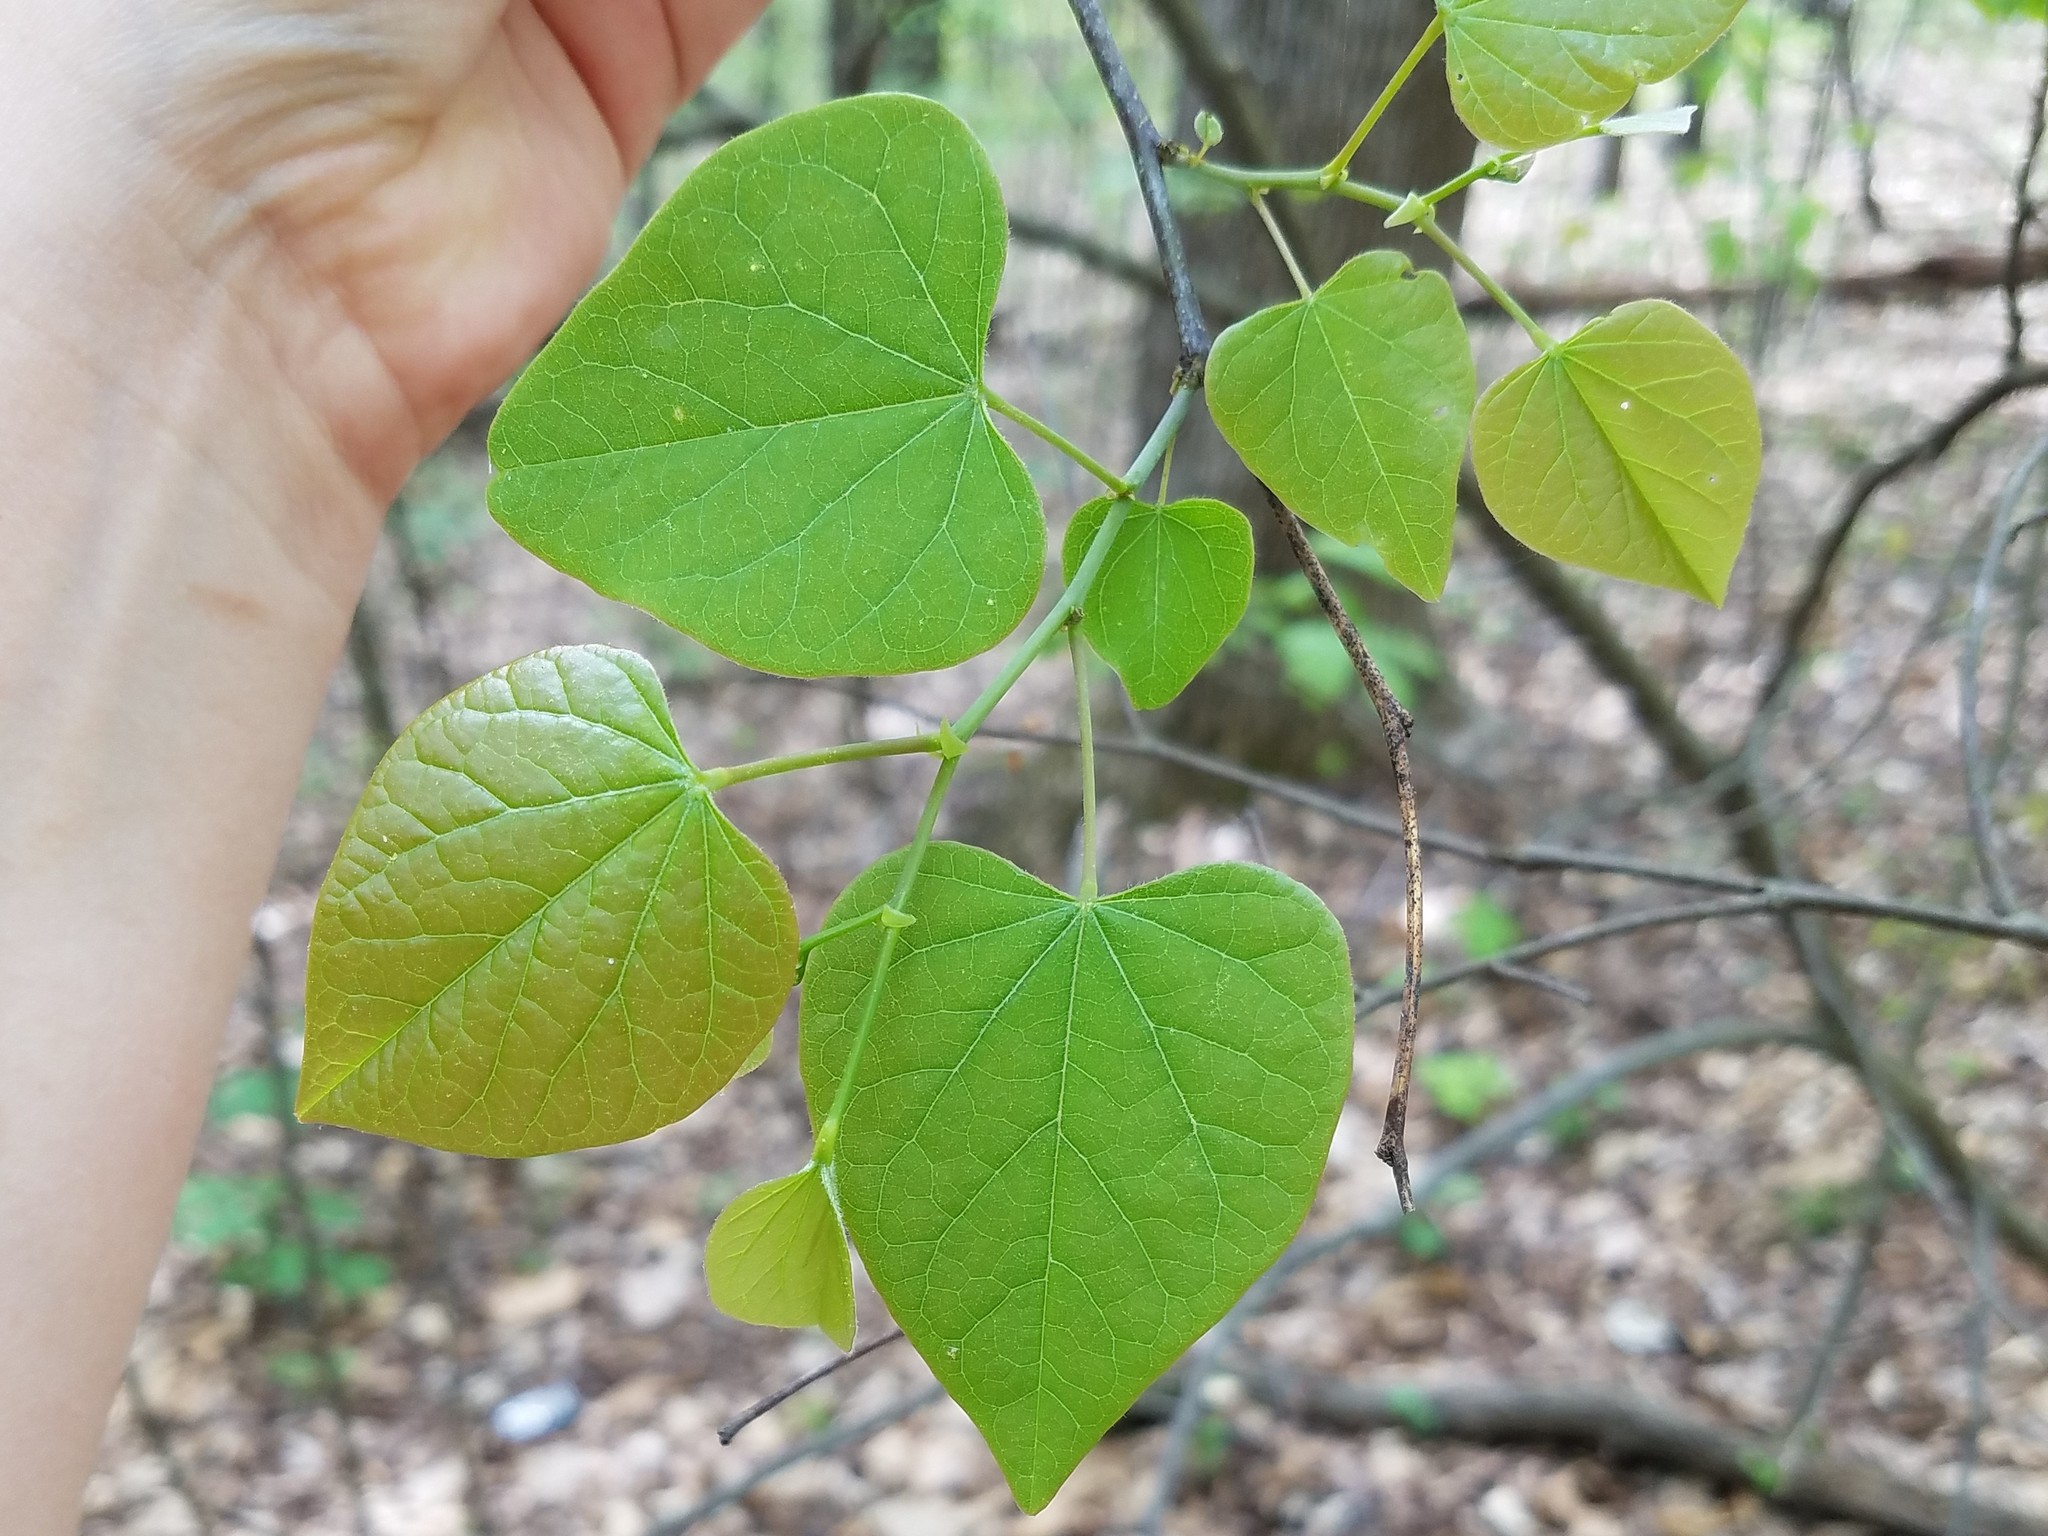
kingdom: Plantae
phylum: Tracheophyta
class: Magnoliopsida
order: Fabales
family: Fabaceae
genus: Cercis
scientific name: Cercis canadensis
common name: Eastern redbud
